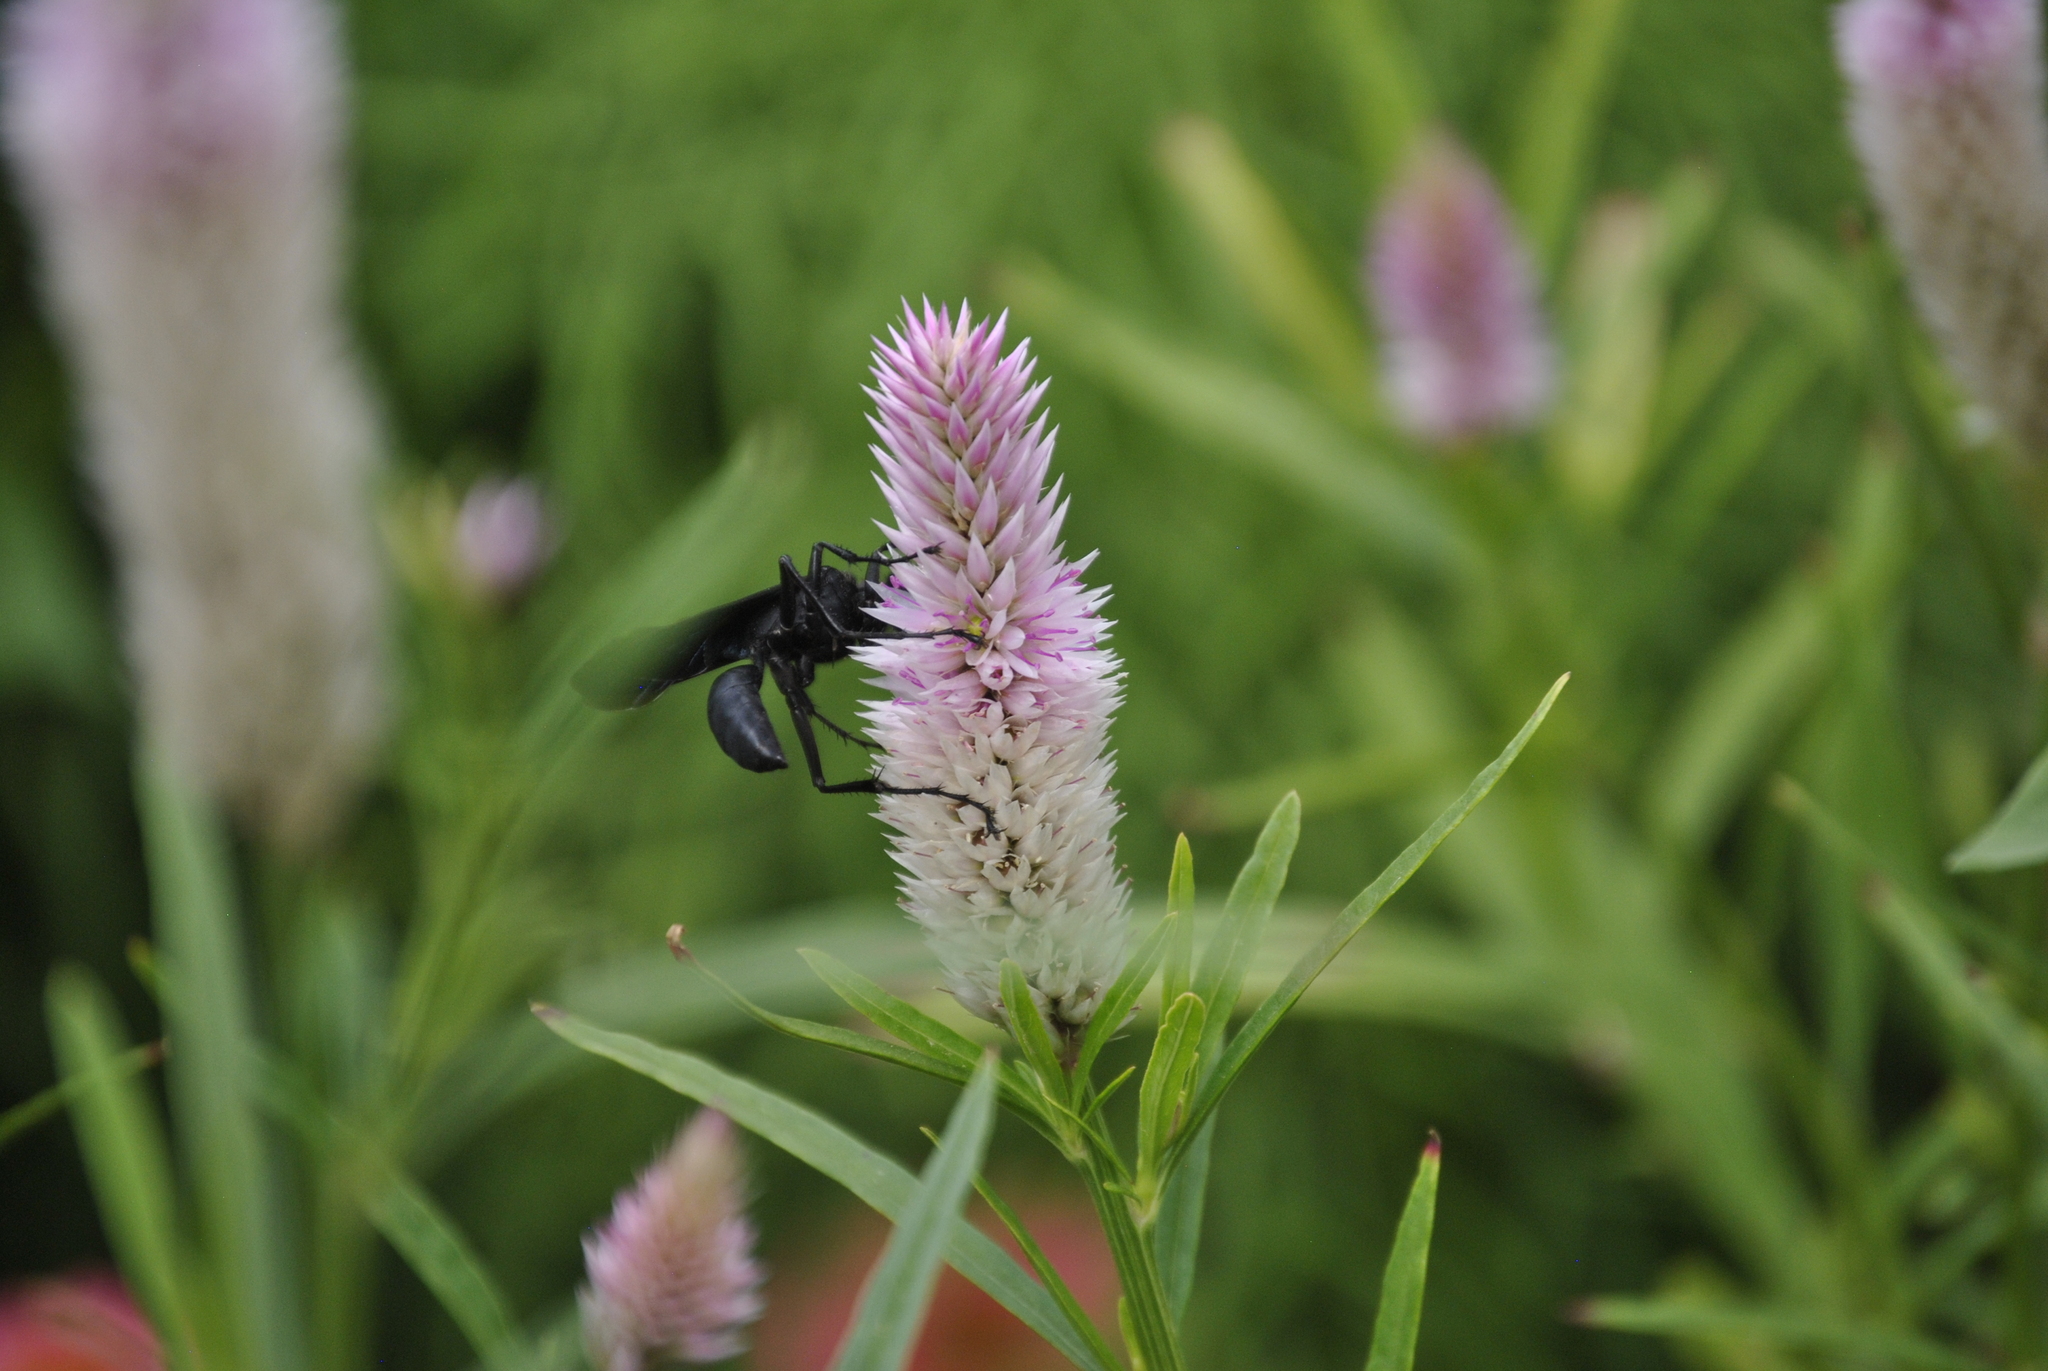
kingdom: Animalia
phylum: Arthropoda
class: Insecta
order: Hymenoptera
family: Sphecidae
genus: Sphex
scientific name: Sphex pensylvanicus
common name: Great black digger wasp
